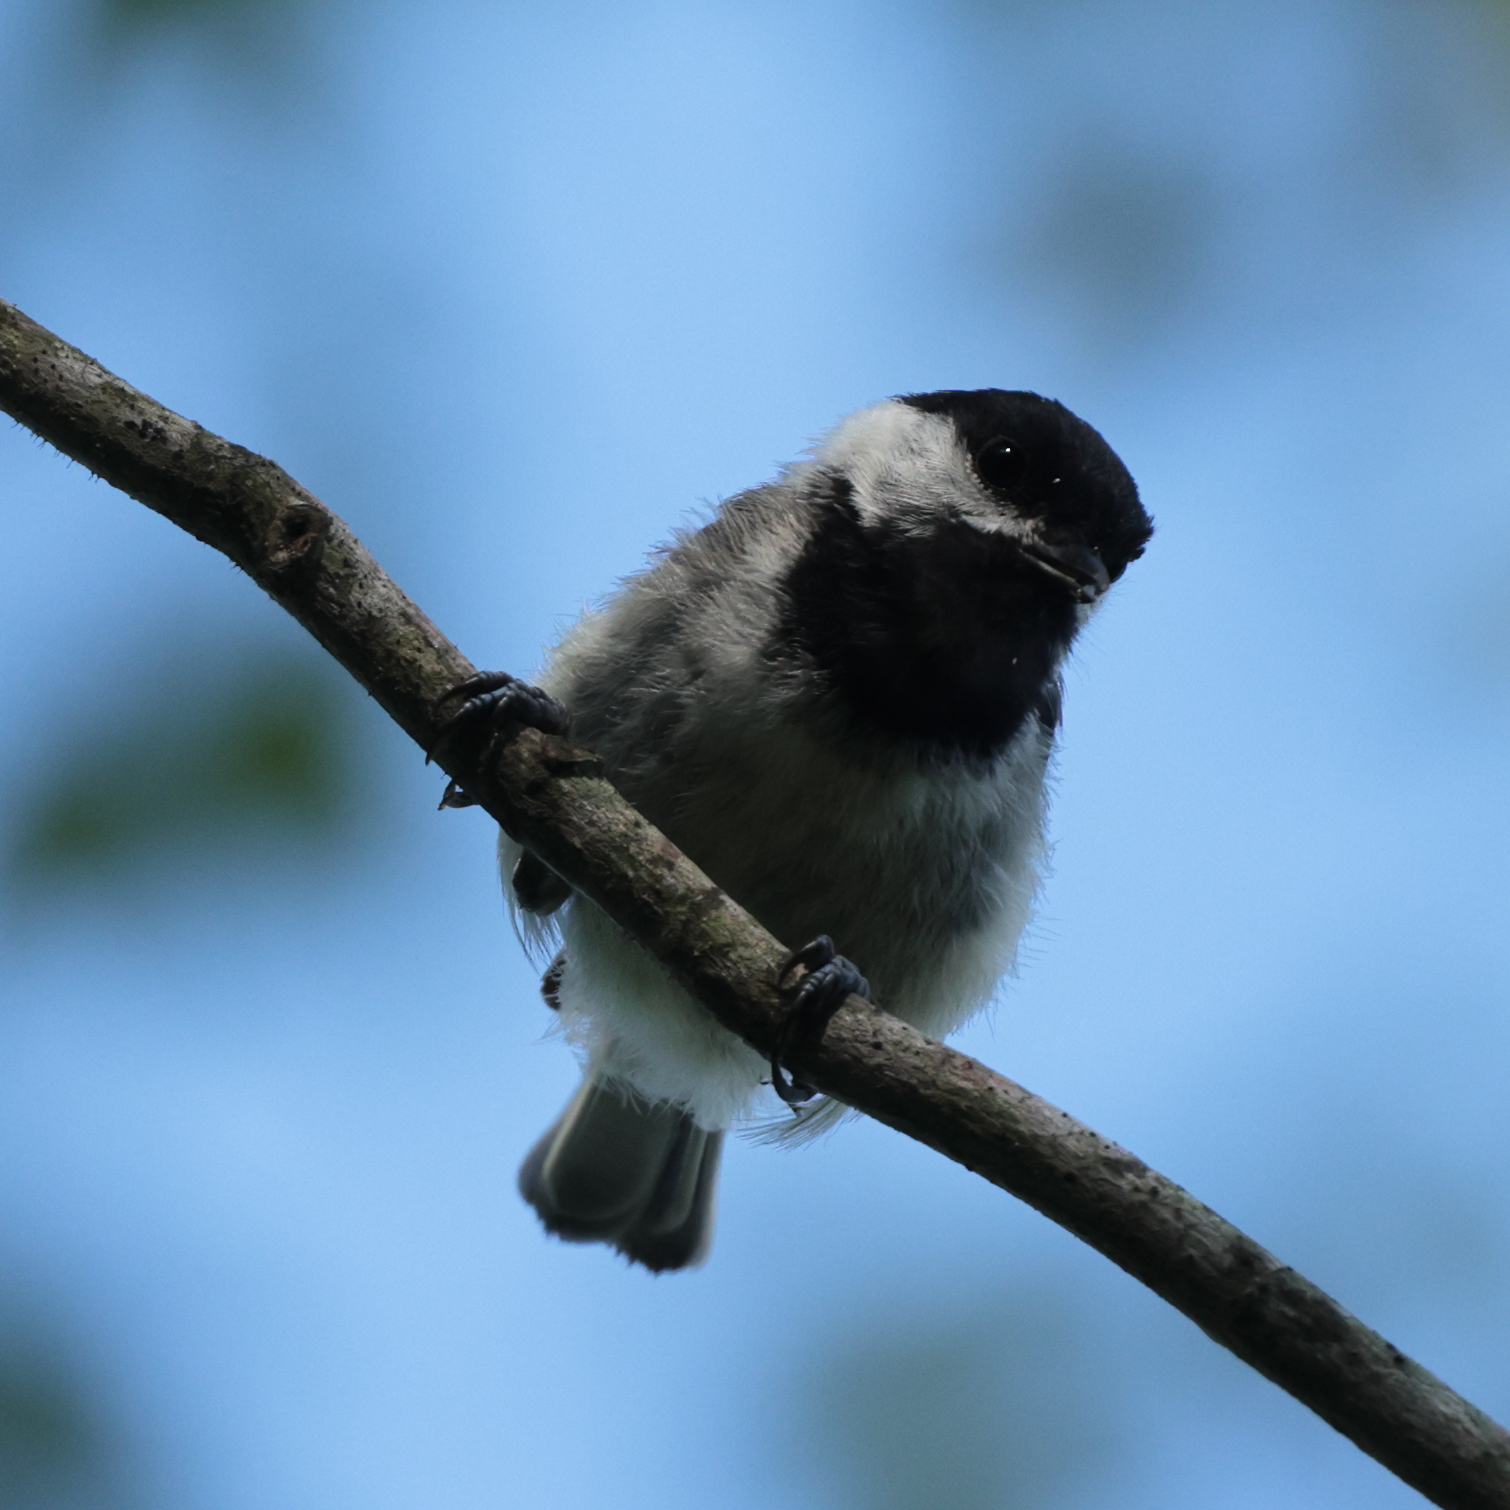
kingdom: Animalia
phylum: Chordata
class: Aves
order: Passeriformes
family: Paridae
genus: Poecile
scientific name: Poecile atricapillus
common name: Black-capped chickadee
